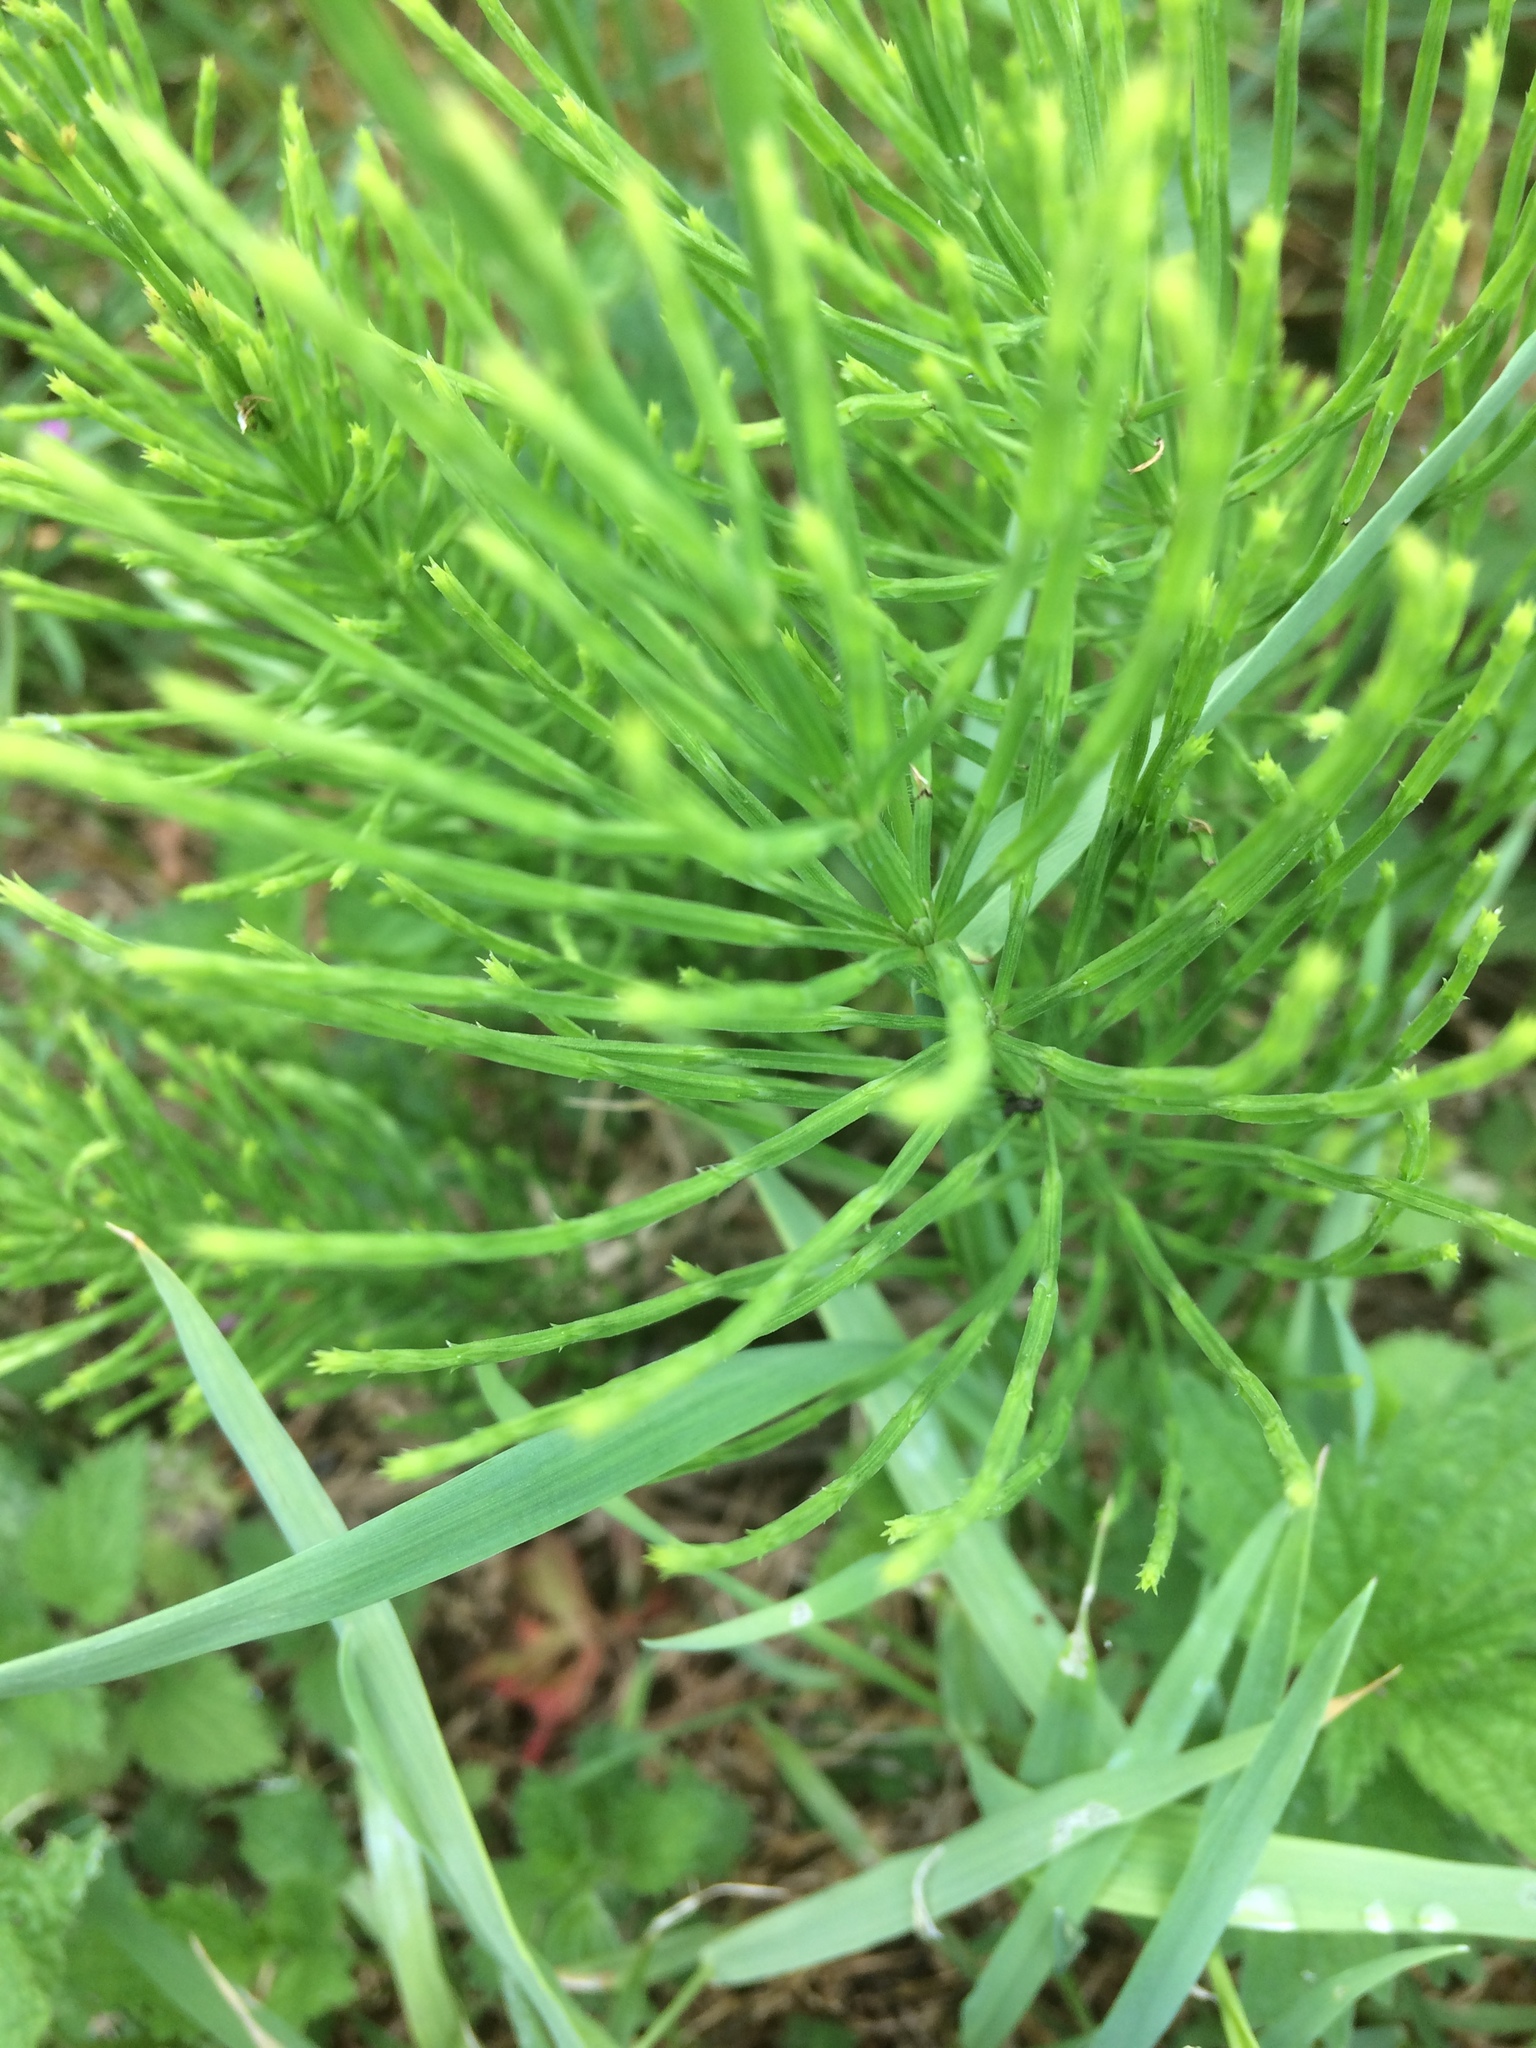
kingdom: Plantae
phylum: Tracheophyta
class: Polypodiopsida
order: Equisetales
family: Equisetaceae
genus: Equisetum
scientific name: Equisetum arvense
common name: Field horsetail
